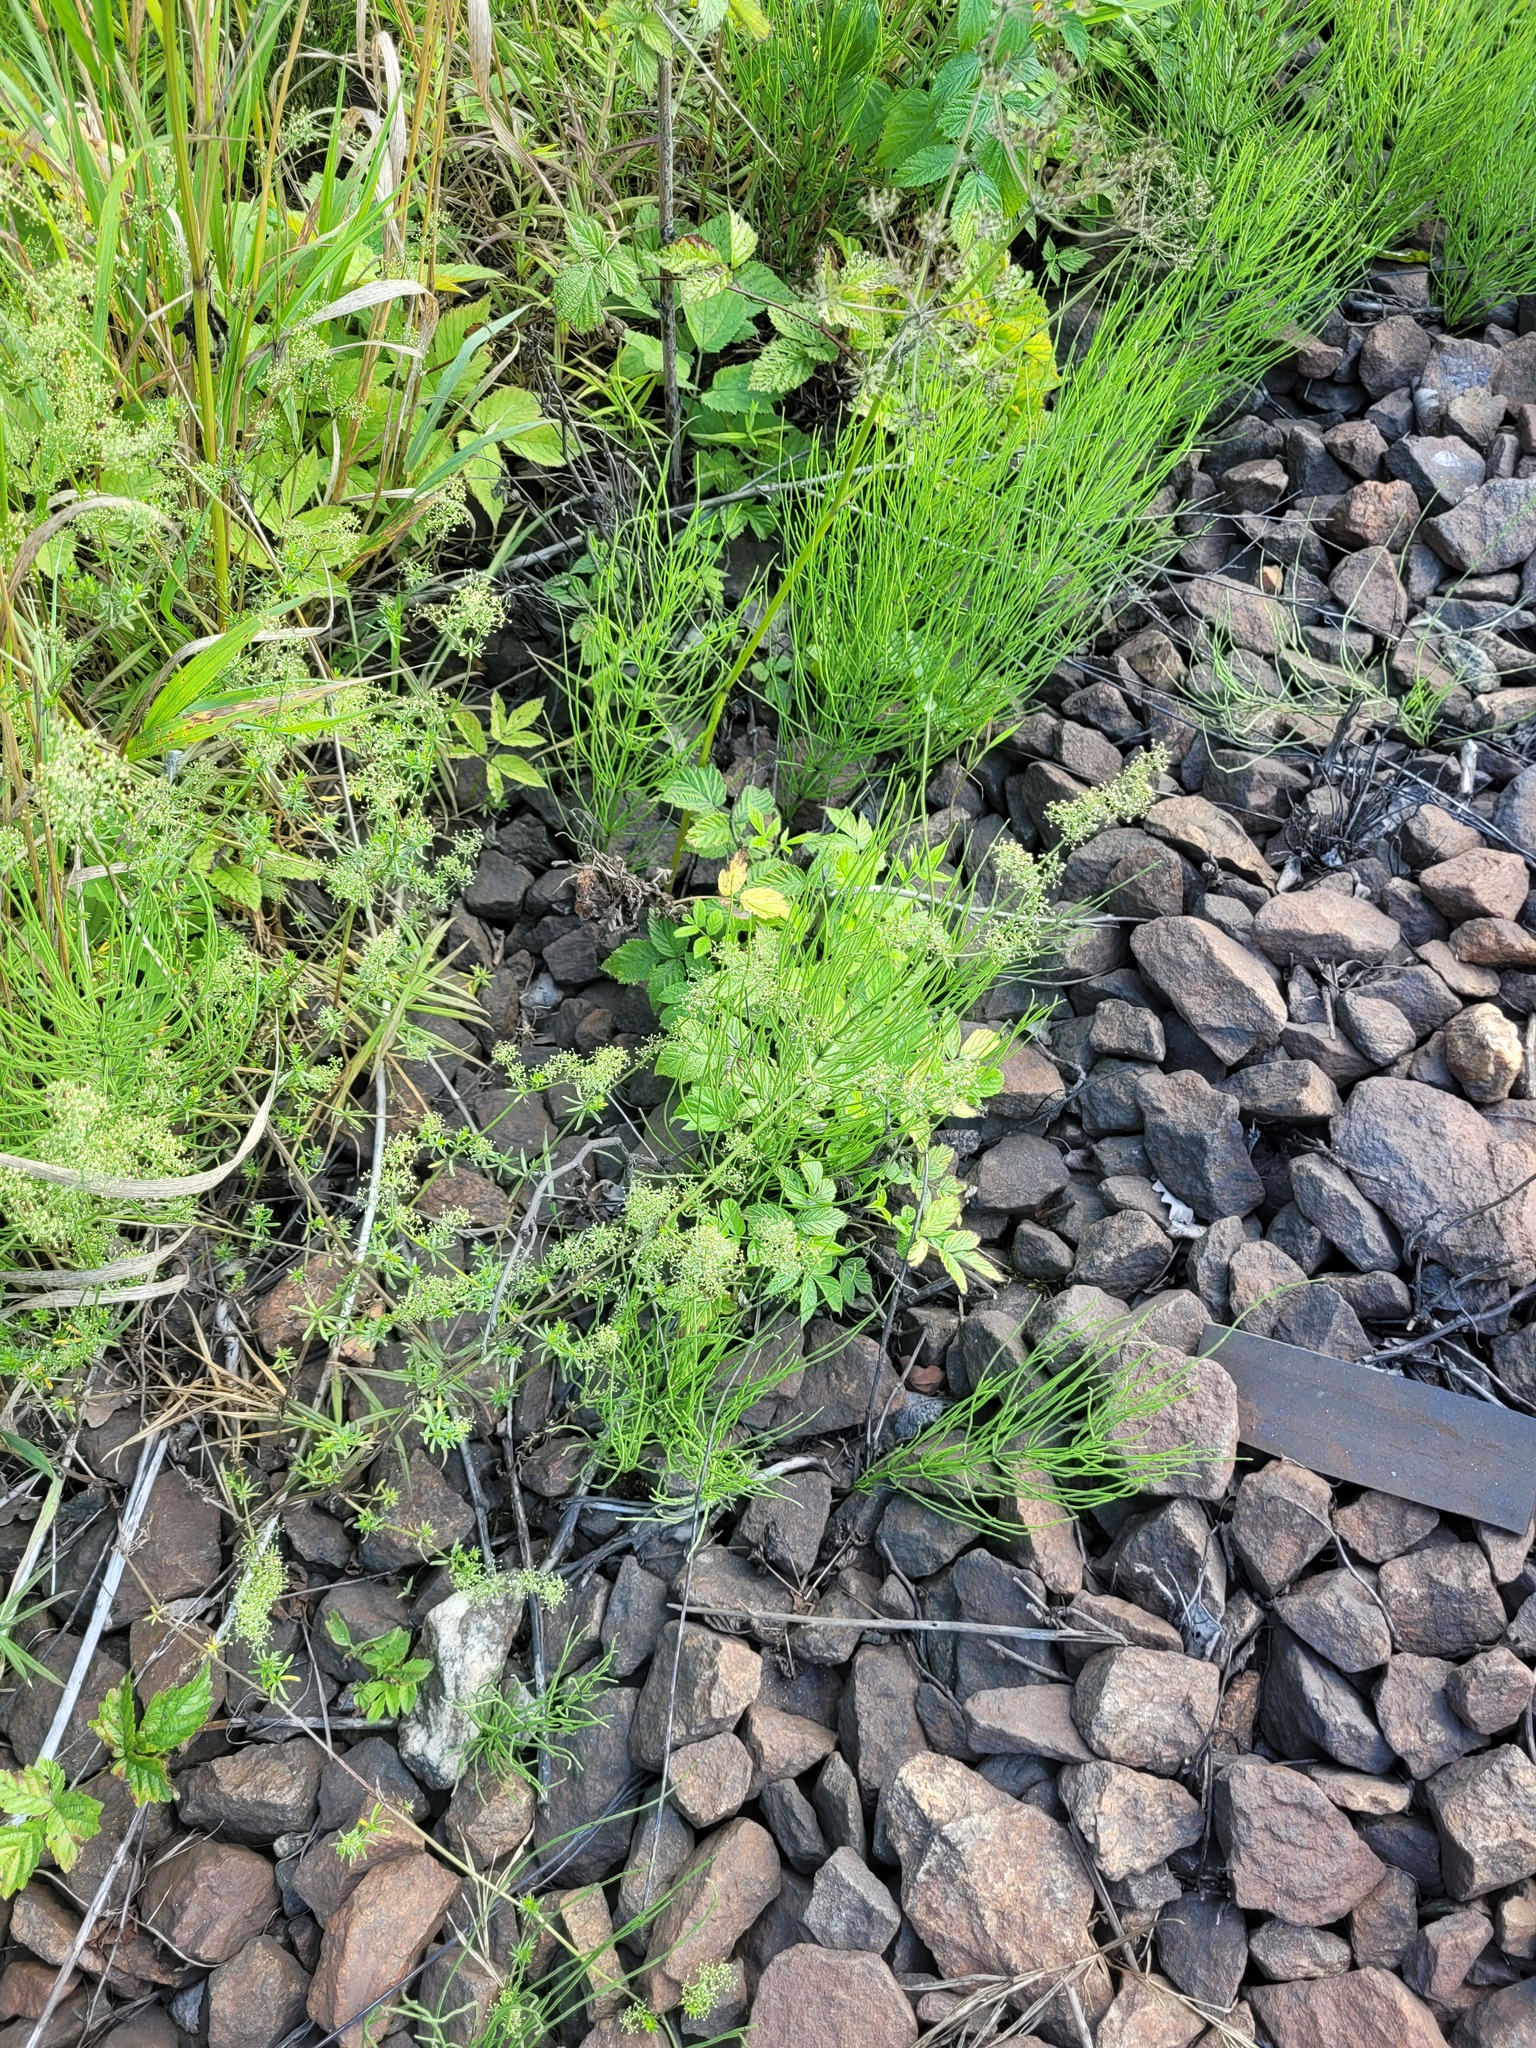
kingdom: Plantae
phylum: Tracheophyta
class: Polypodiopsida
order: Equisetales
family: Equisetaceae
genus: Equisetum
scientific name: Equisetum arvense
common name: Field horsetail
